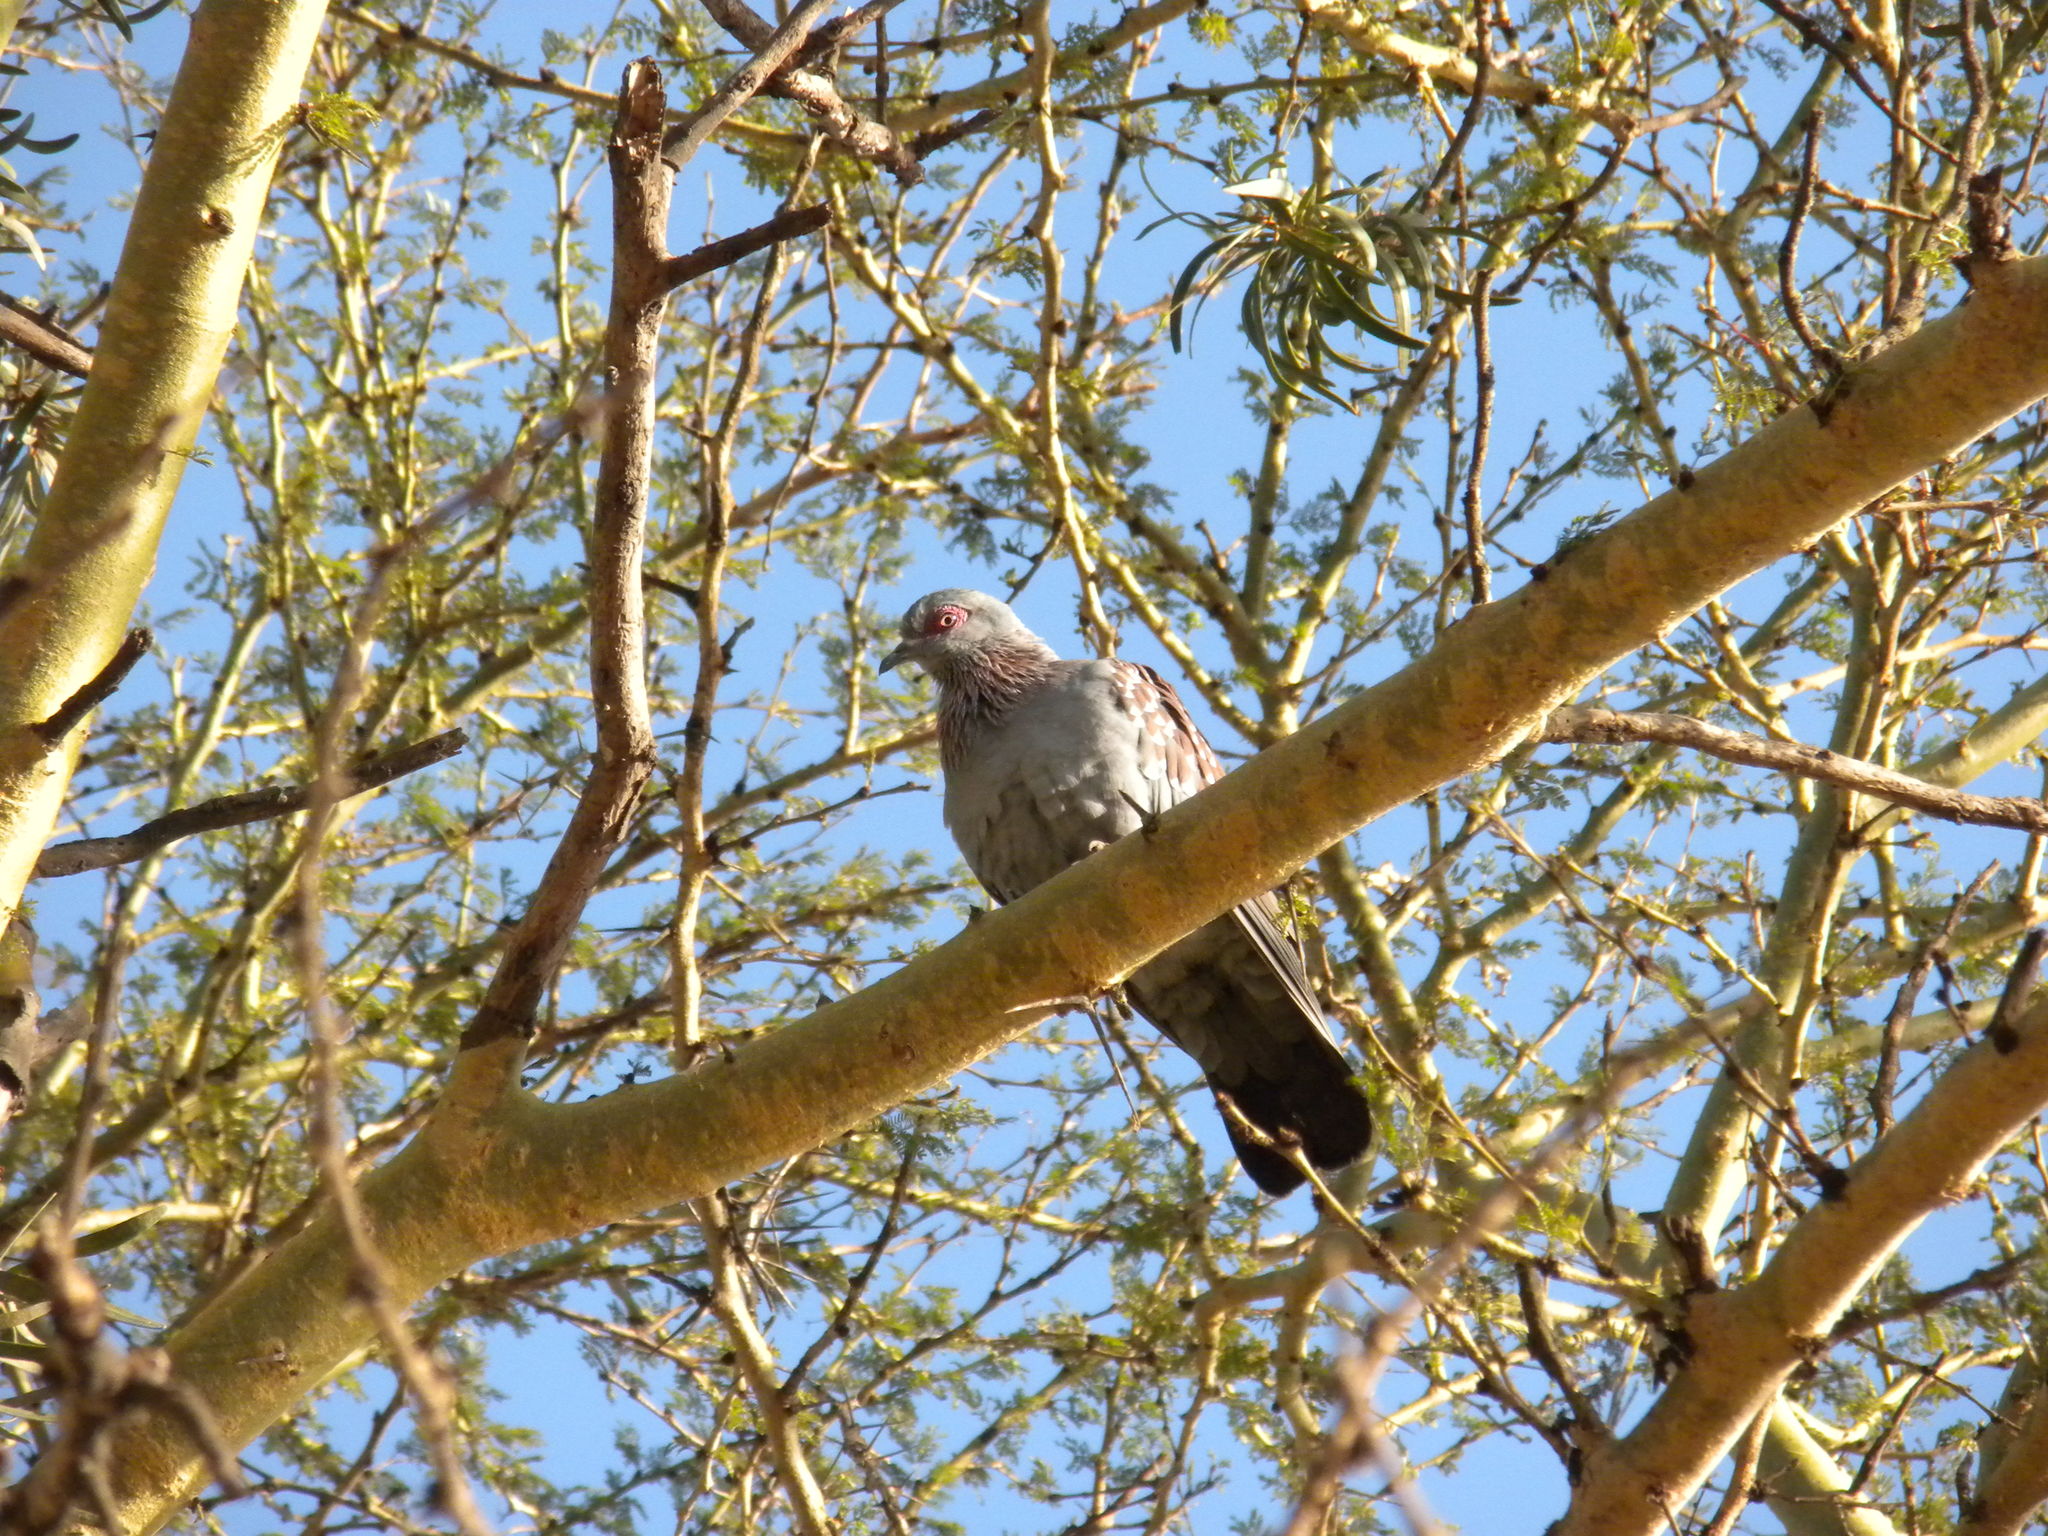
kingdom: Animalia
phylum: Chordata
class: Aves
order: Columbiformes
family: Columbidae
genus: Columba
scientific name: Columba guinea
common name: Speckled pigeon
